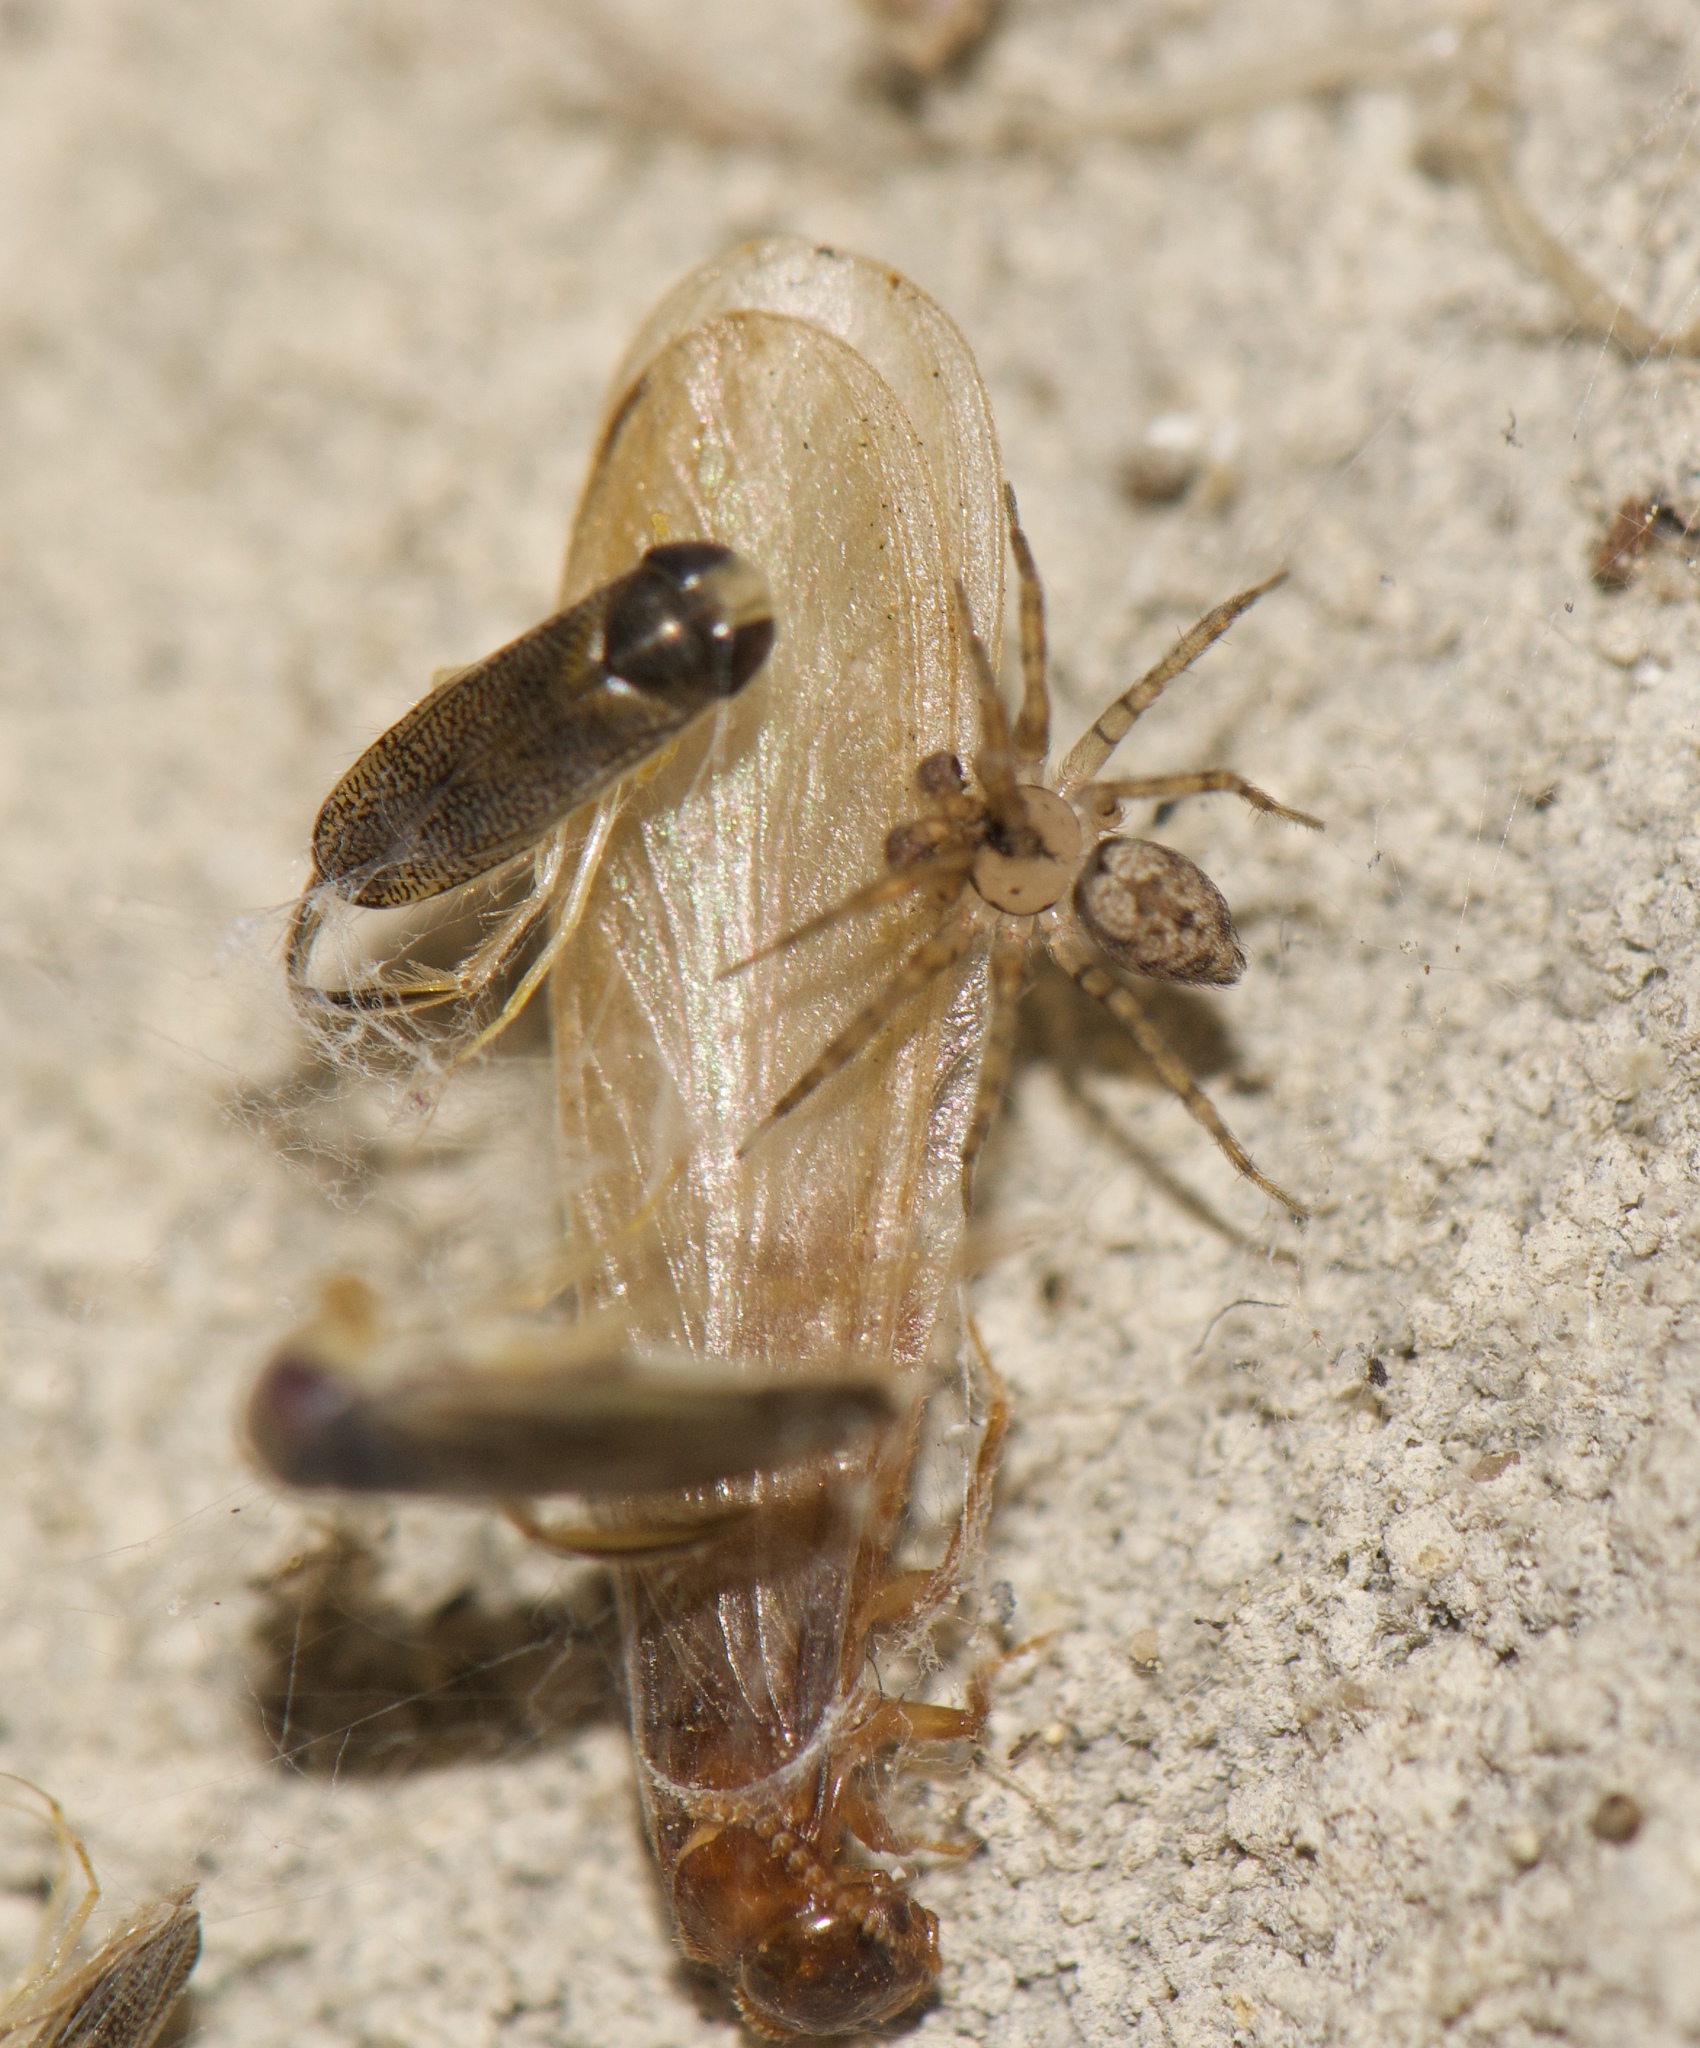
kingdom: Animalia
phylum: Arthropoda
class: Insecta
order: Blattodea
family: Rhinotermitidae
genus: Coptotermes
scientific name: Coptotermes formosanus
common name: Formosan termite
